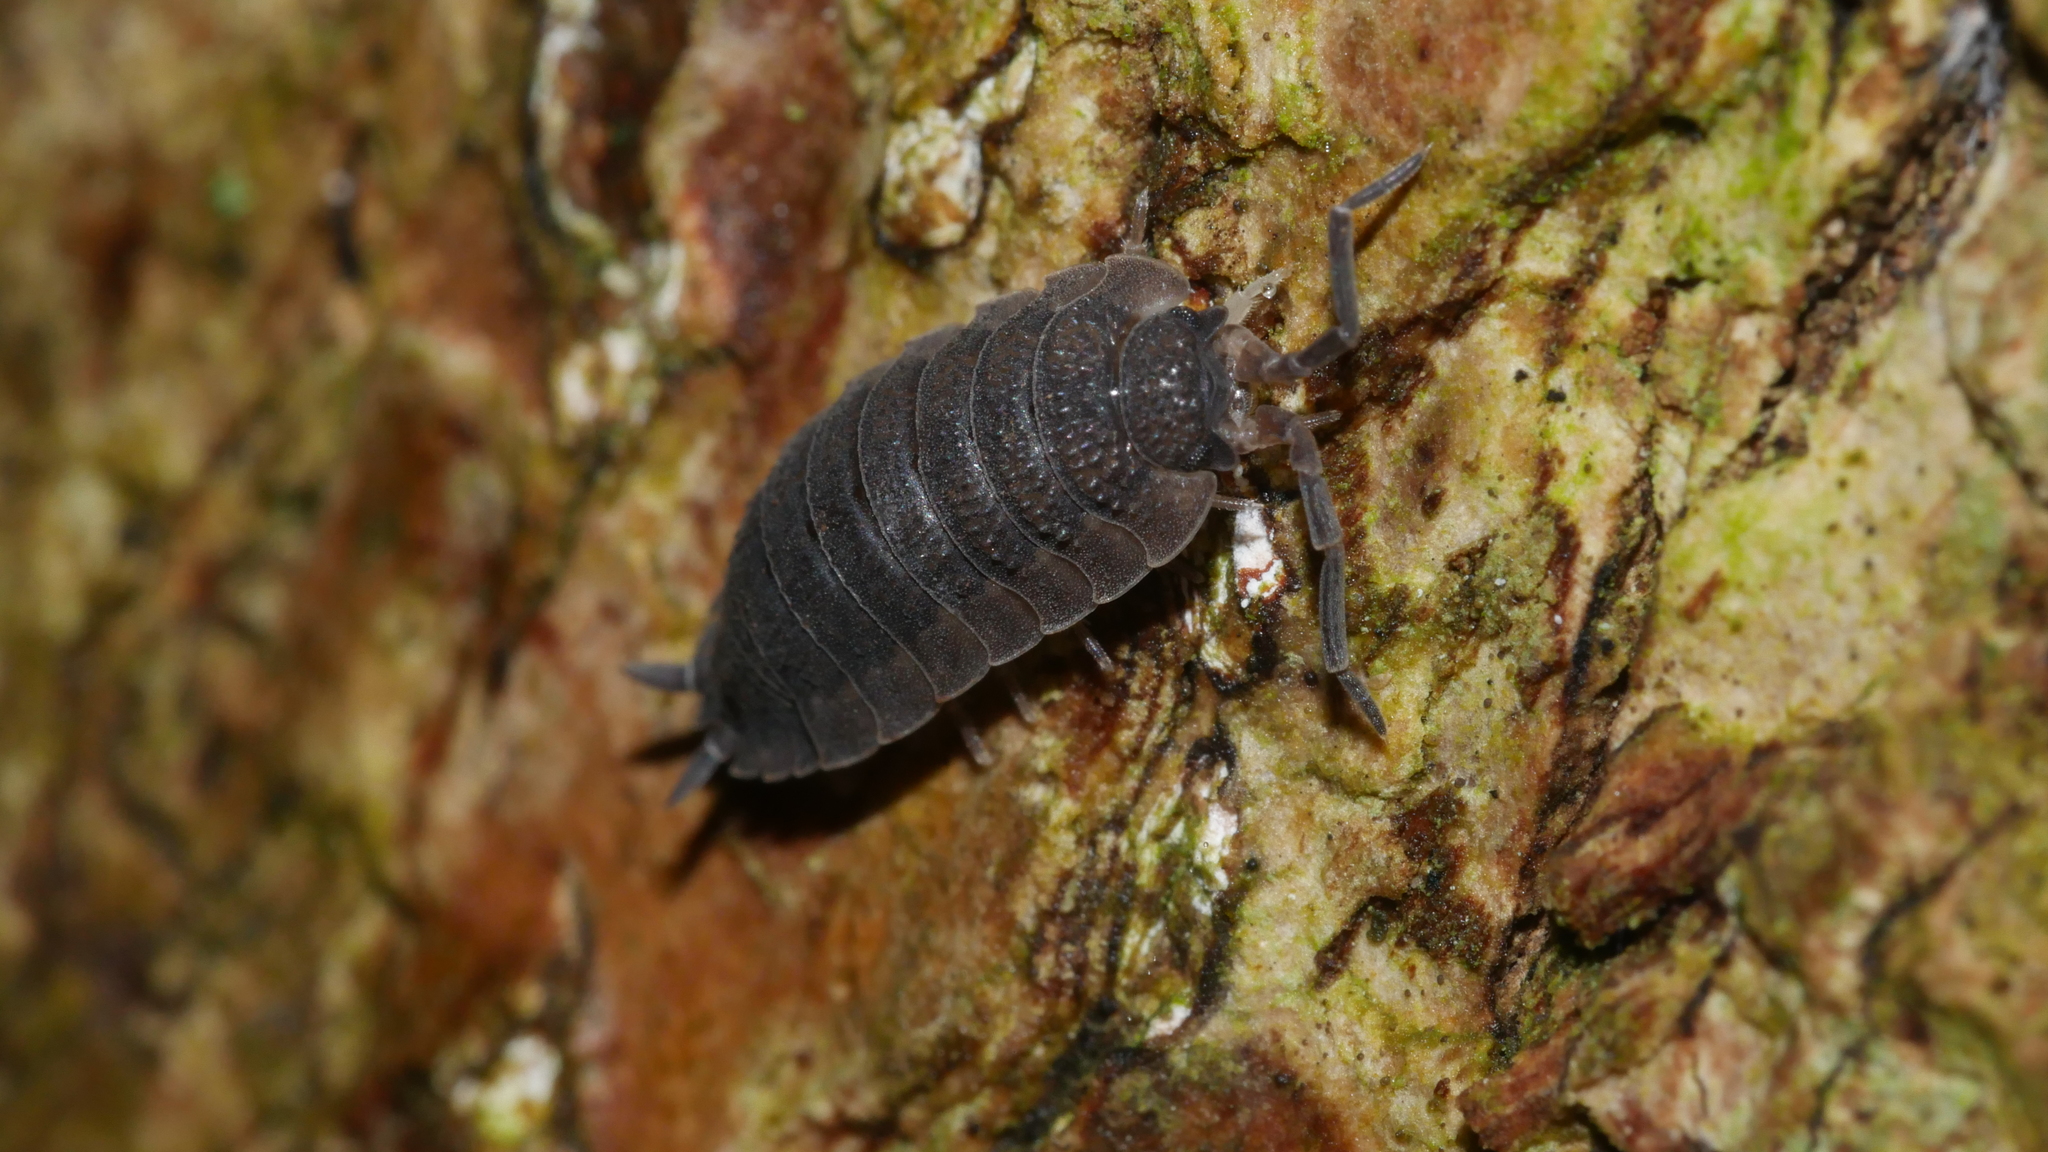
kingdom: Animalia
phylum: Arthropoda
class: Malacostraca
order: Isopoda
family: Porcellionidae
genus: Porcellio
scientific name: Porcellio scaber
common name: Common rough woodlouse
